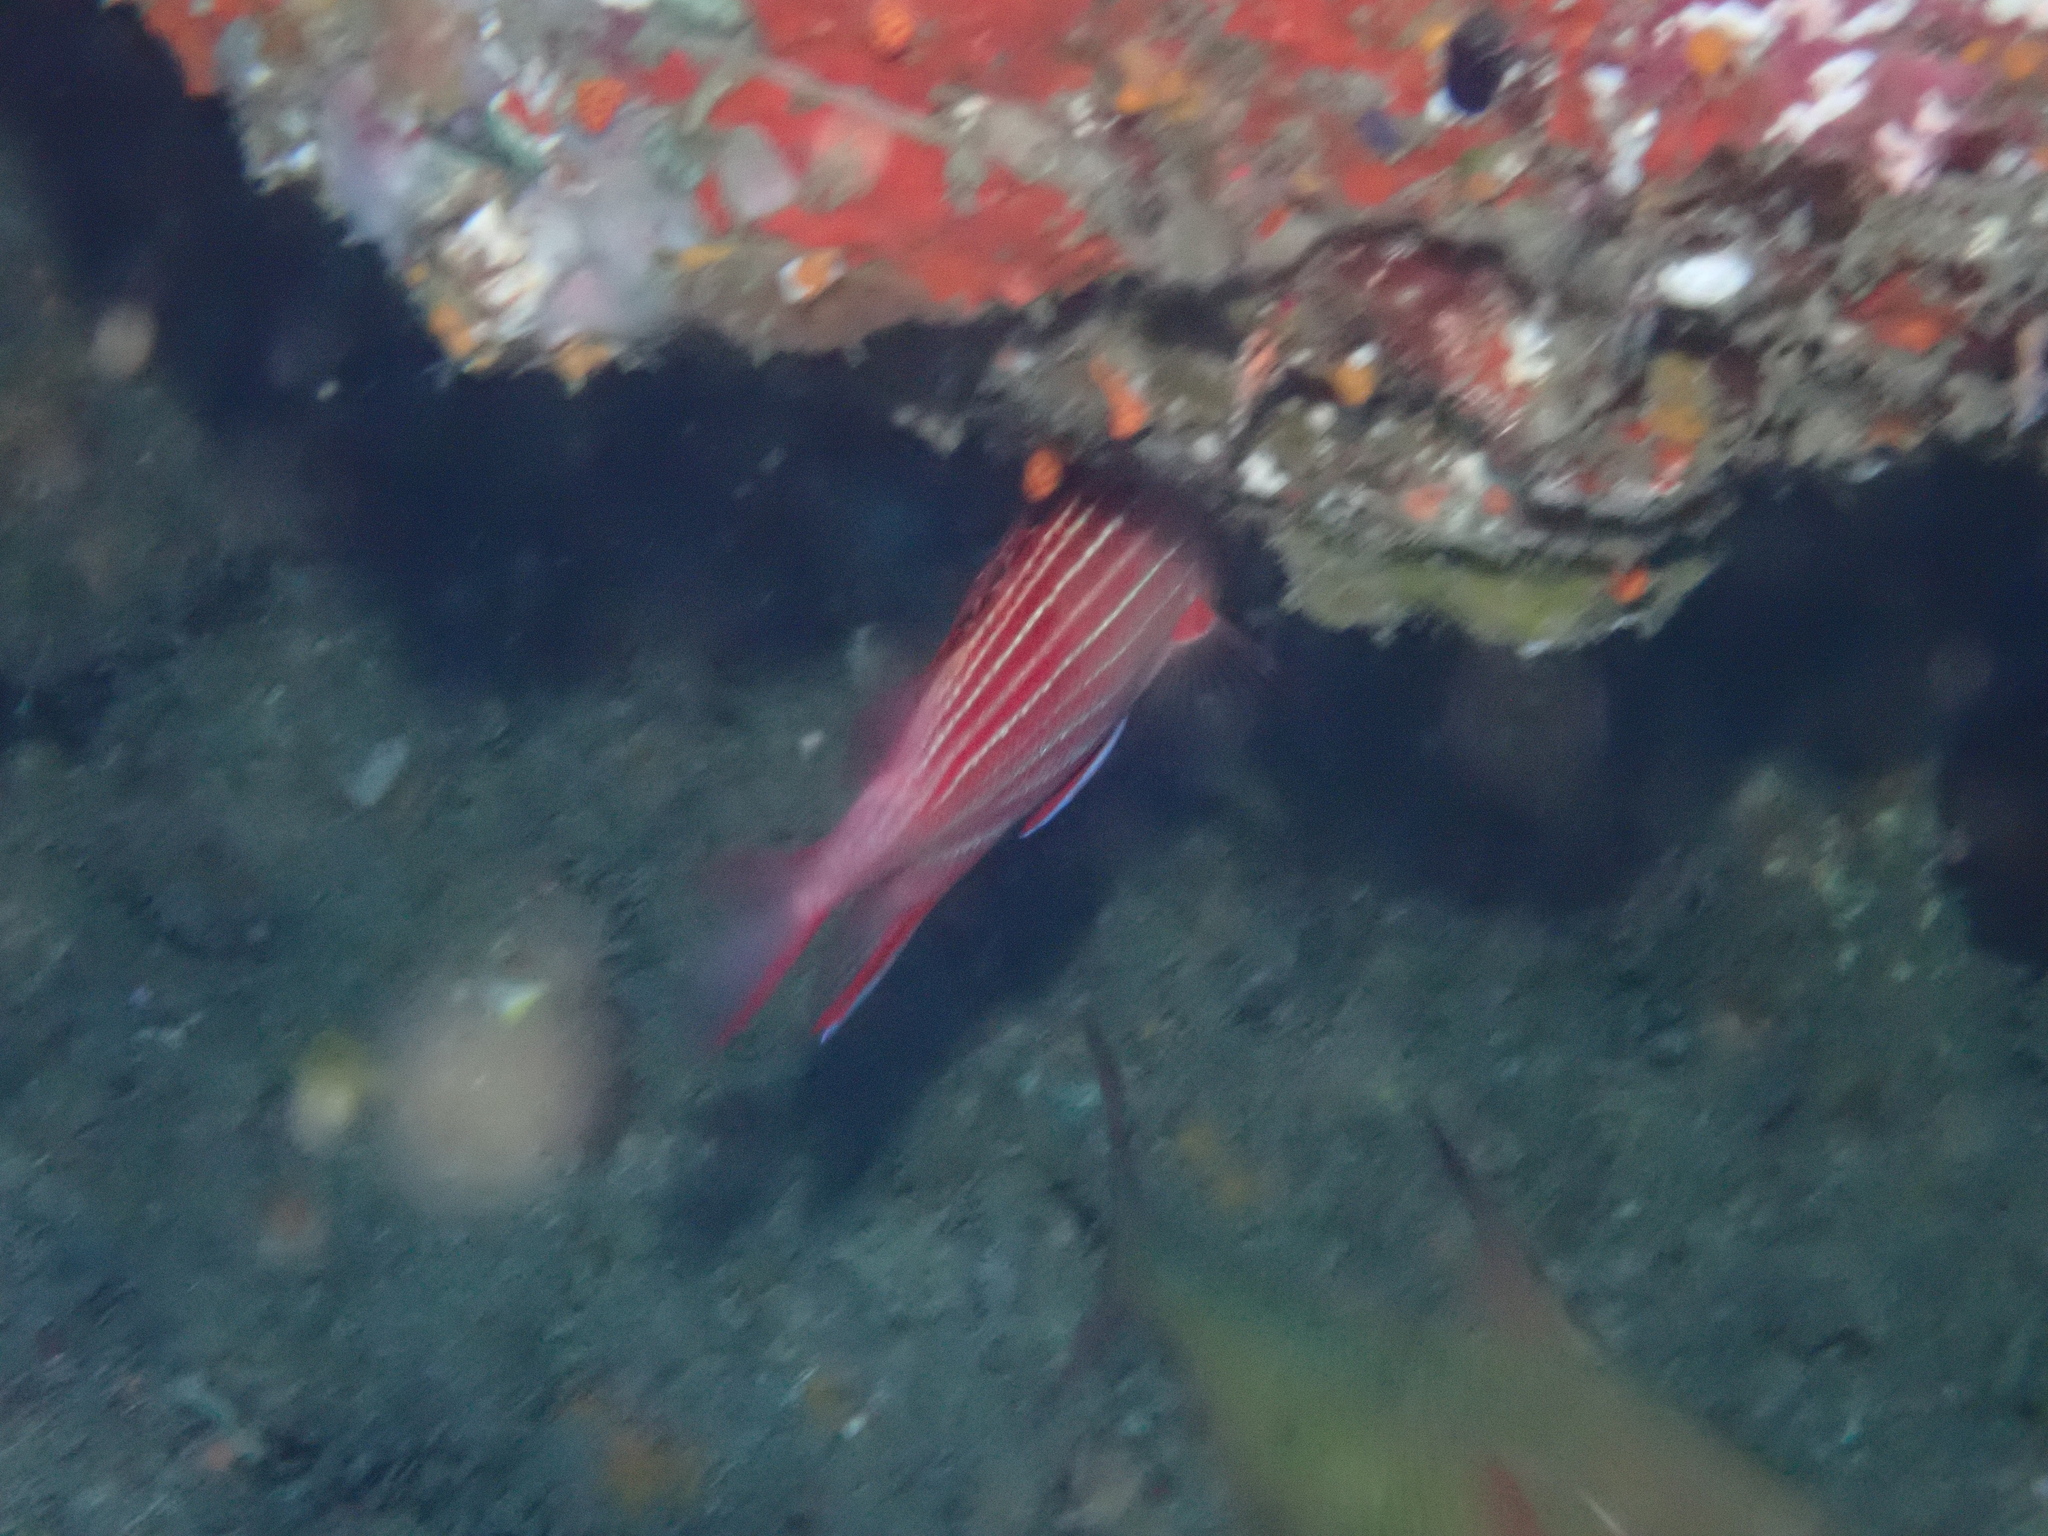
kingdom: Animalia
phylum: Chordata
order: Beryciformes
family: Holocentridae
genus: Sargocentron
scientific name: Sargocentron diadema
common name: Crown squirrelfish
